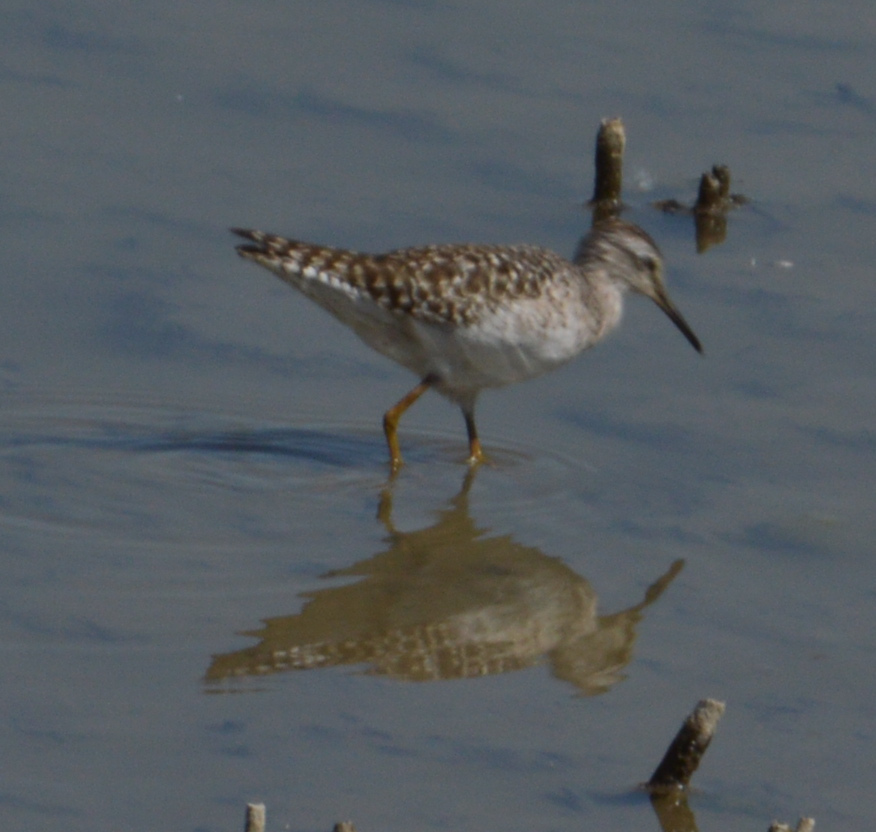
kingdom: Animalia
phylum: Chordata
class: Aves
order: Charadriiformes
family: Scolopacidae
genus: Tringa
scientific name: Tringa glareola
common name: Wood sandpiper
